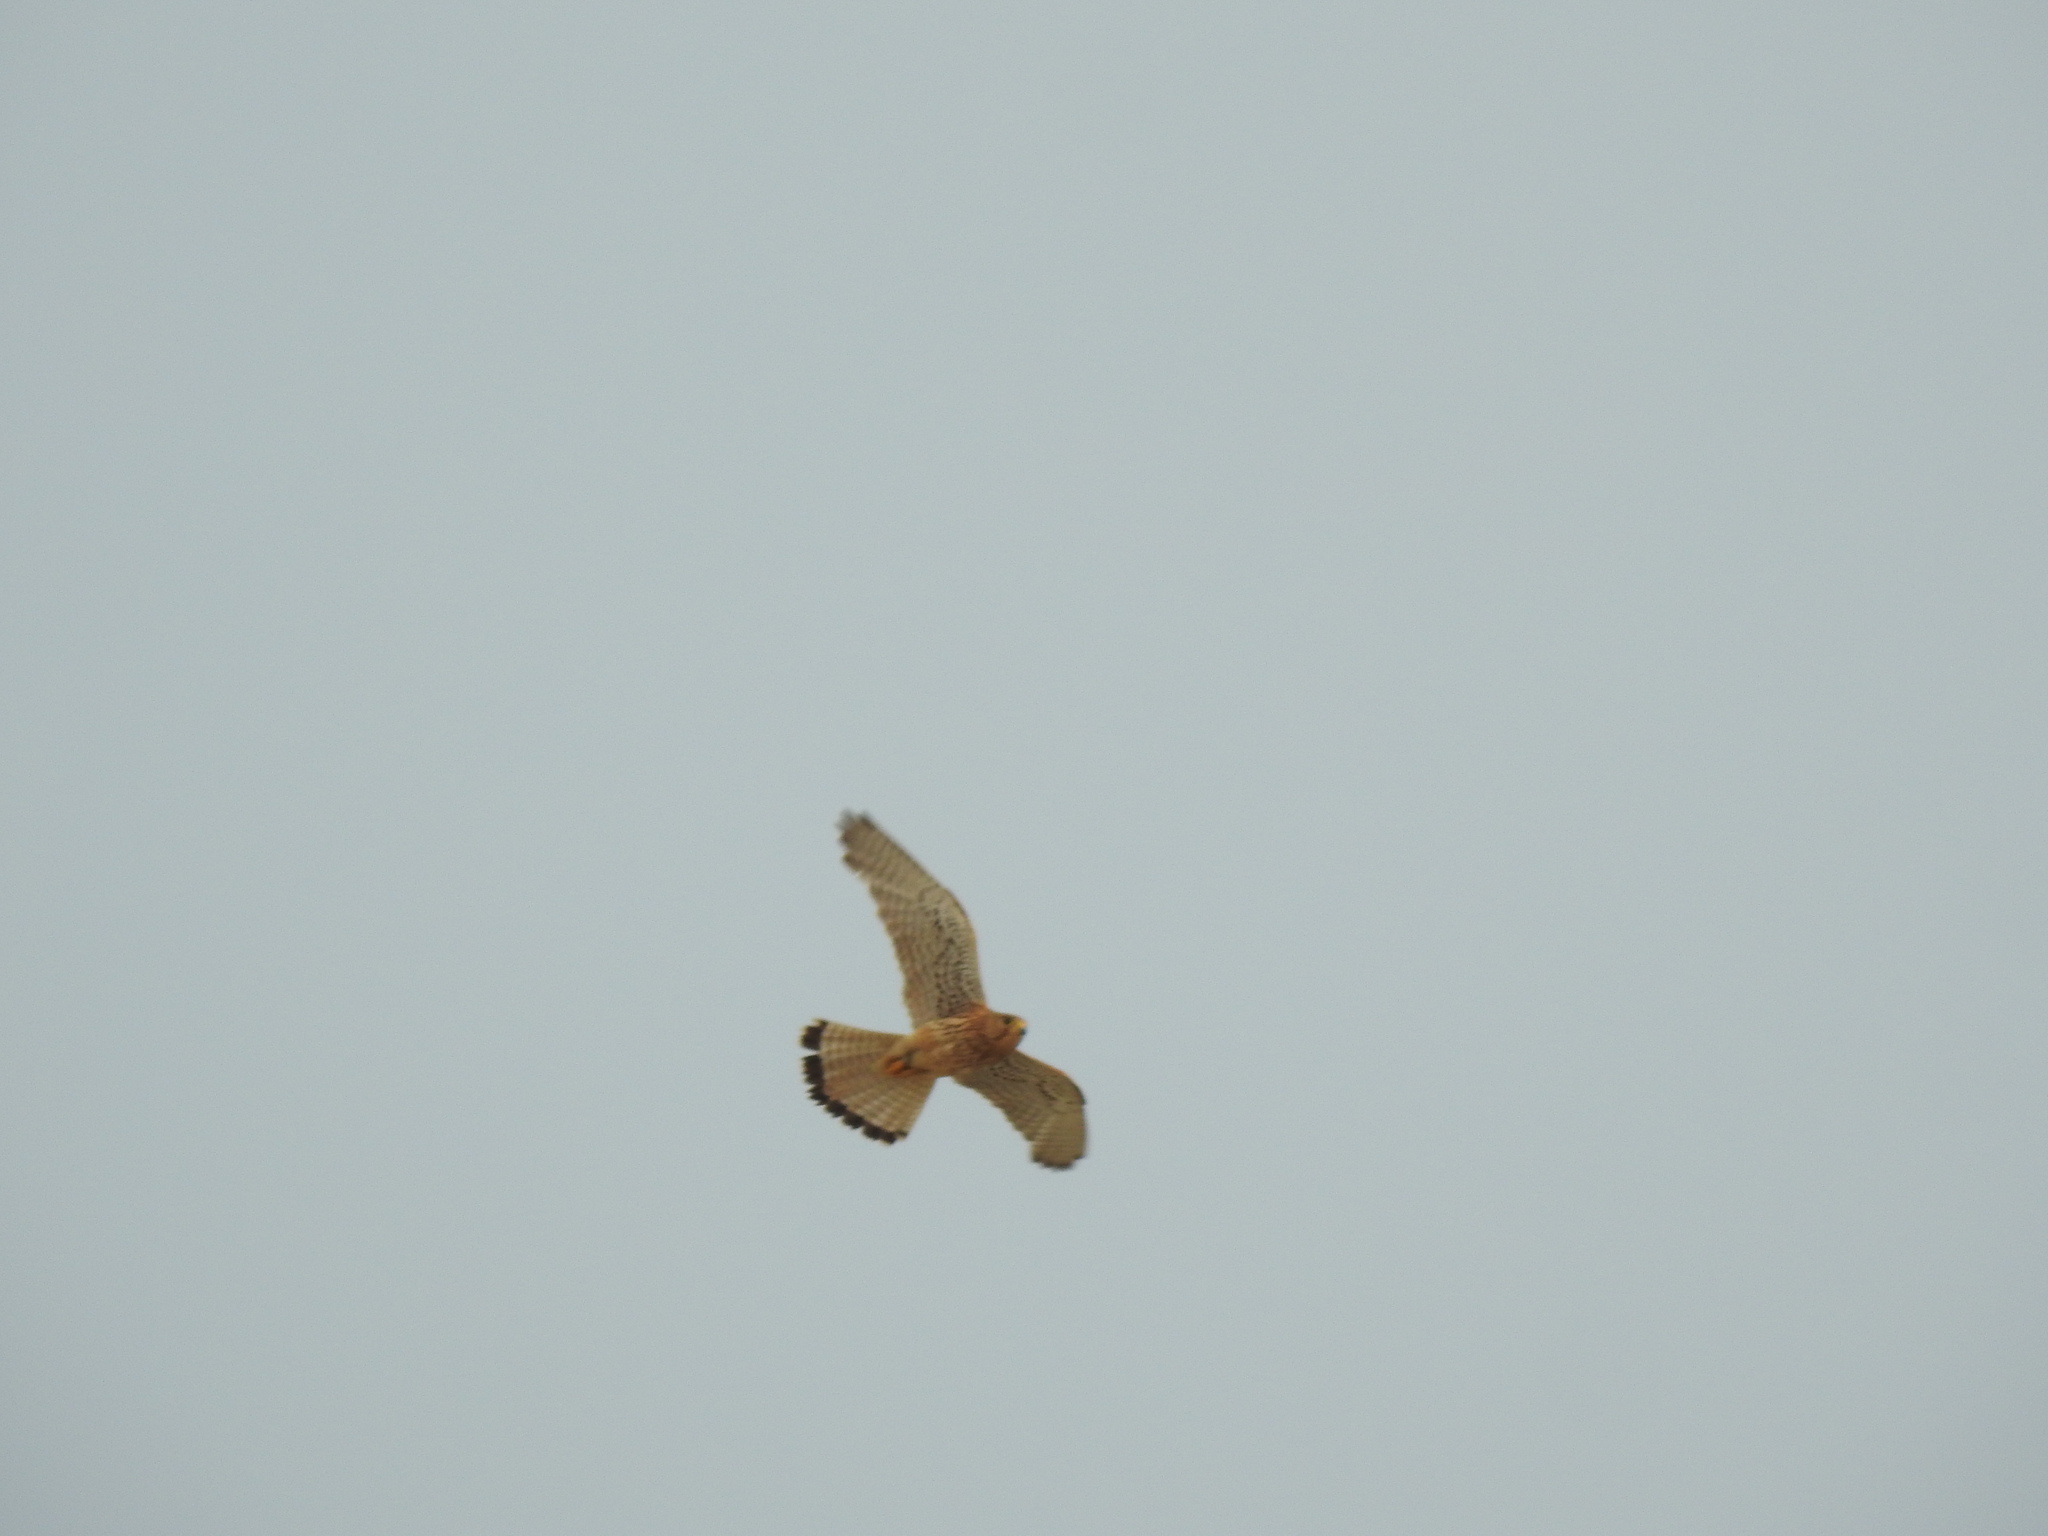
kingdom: Animalia
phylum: Chordata
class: Aves
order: Falconiformes
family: Falconidae
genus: Falco
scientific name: Falco tinnunculus
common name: Common kestrel
